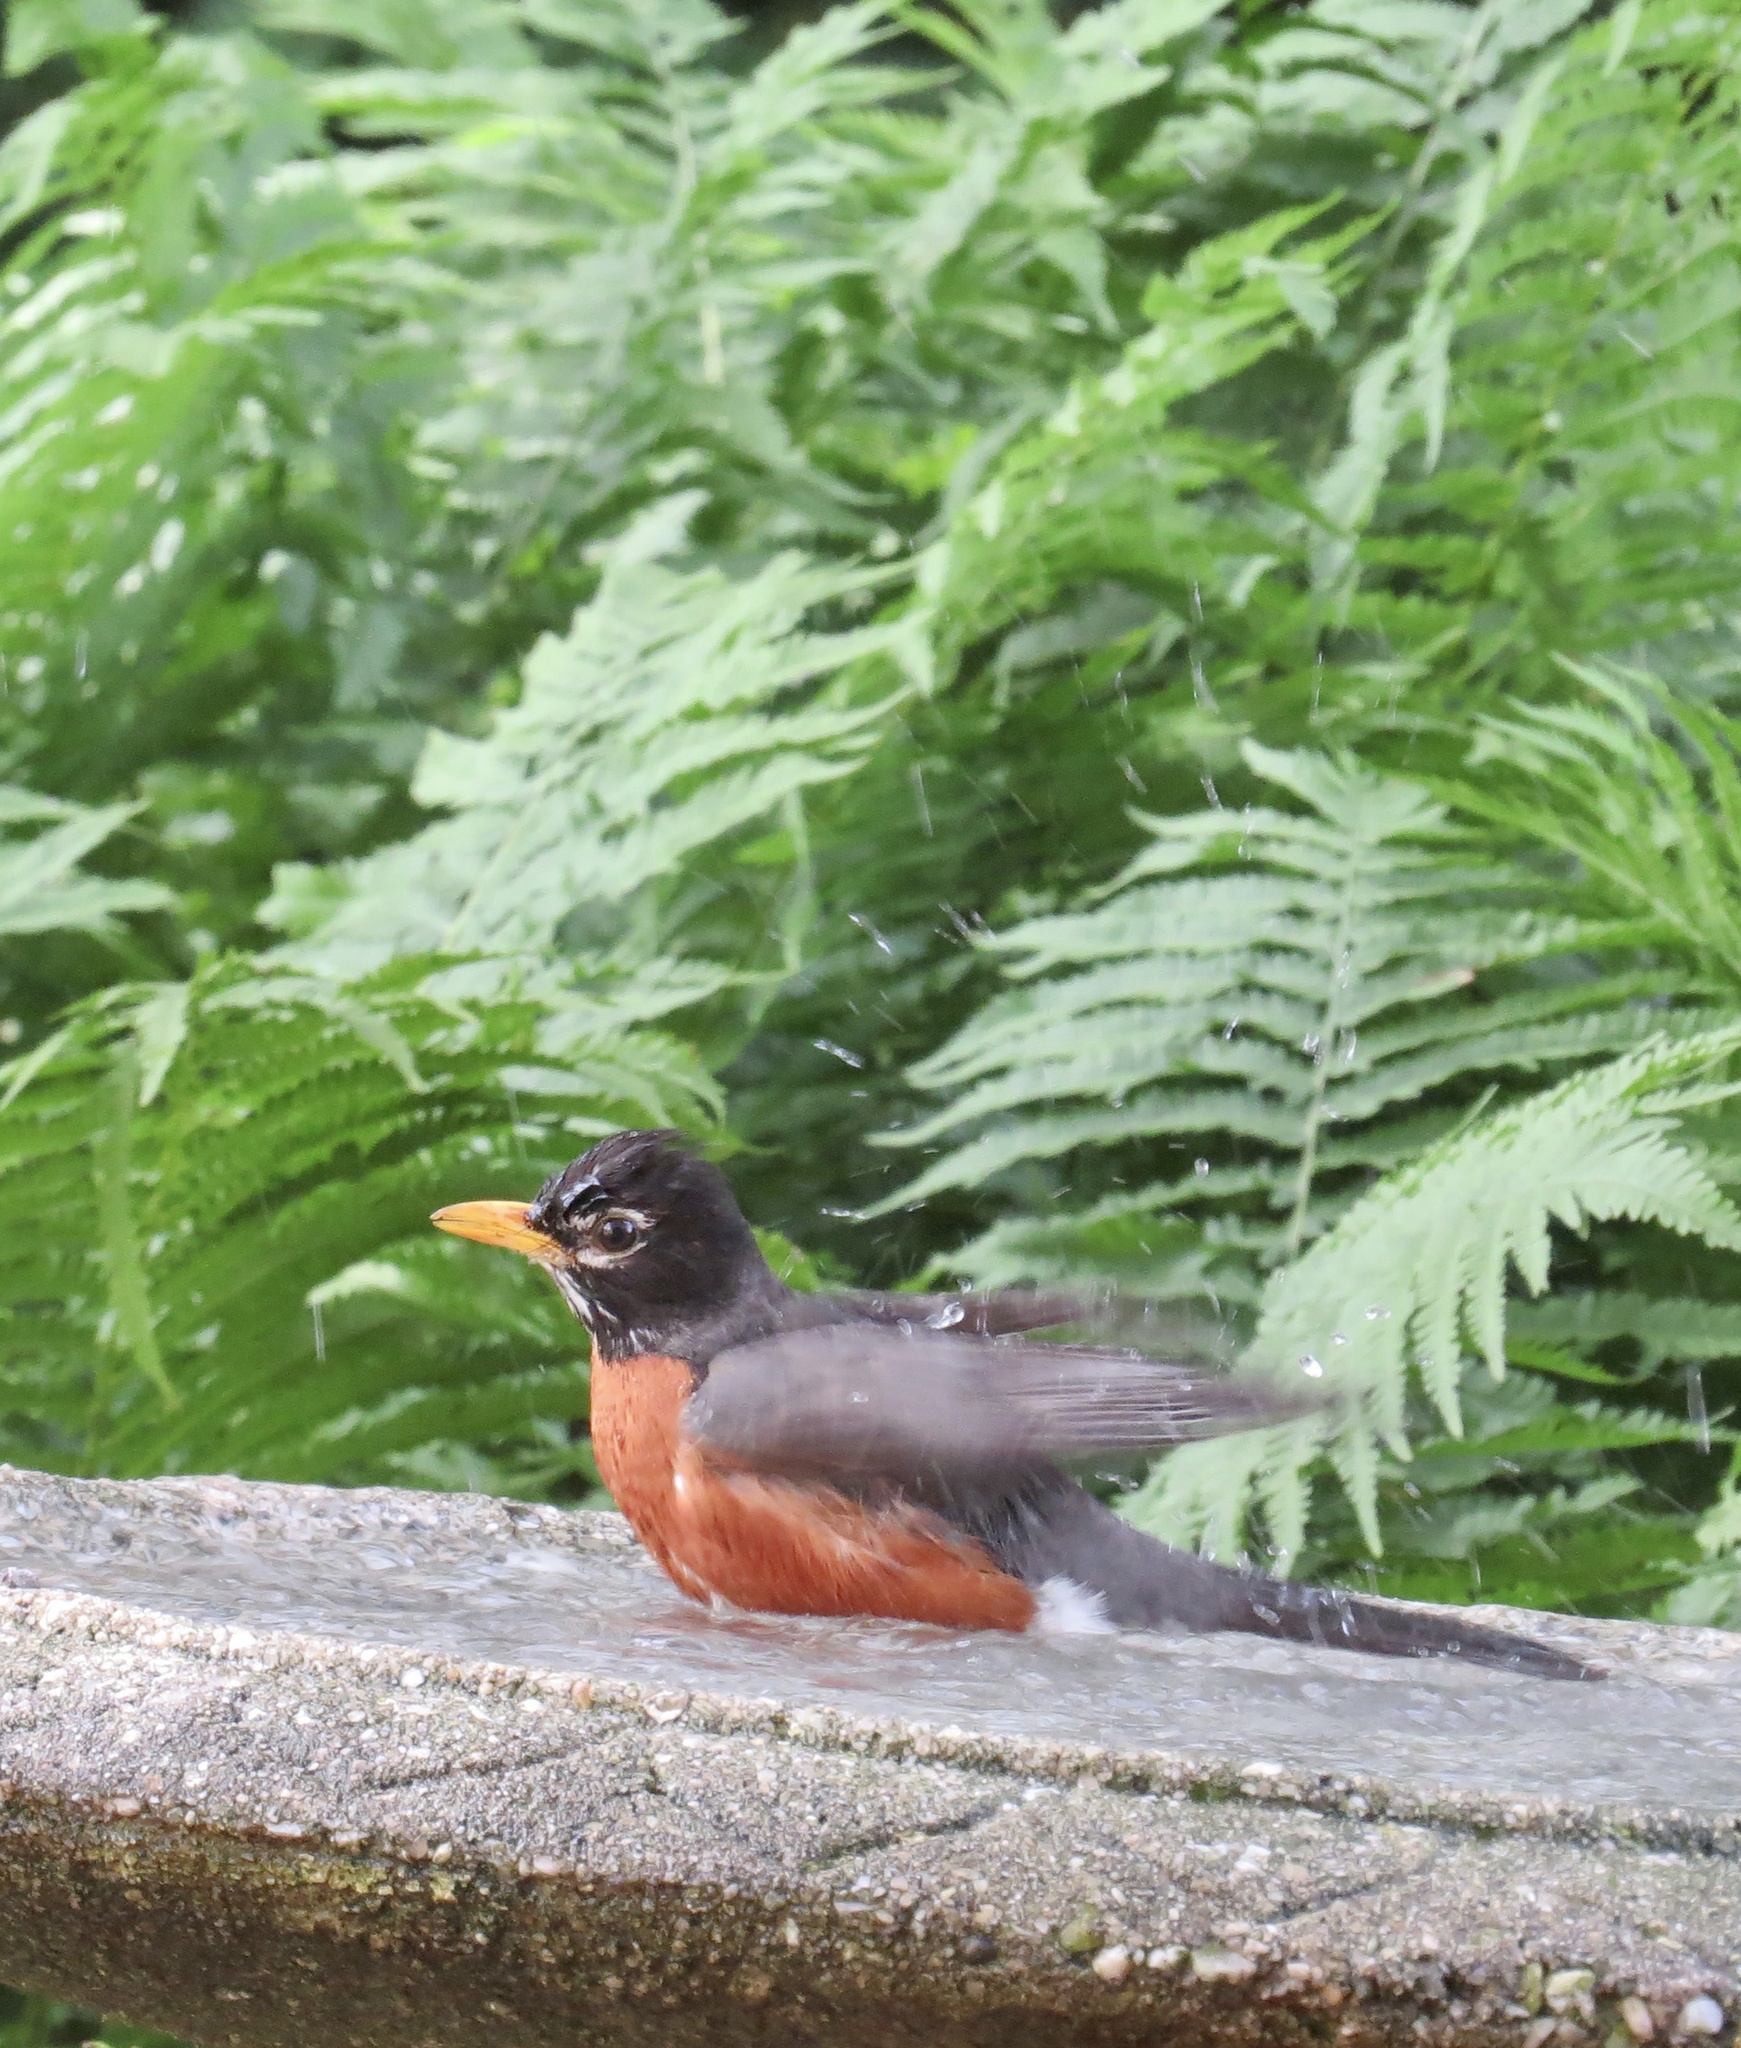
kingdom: Animalia
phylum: Chordata
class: Aves
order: Passeriformes
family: Turdidae
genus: Turdus
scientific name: Turdus migratorius
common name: American robin
